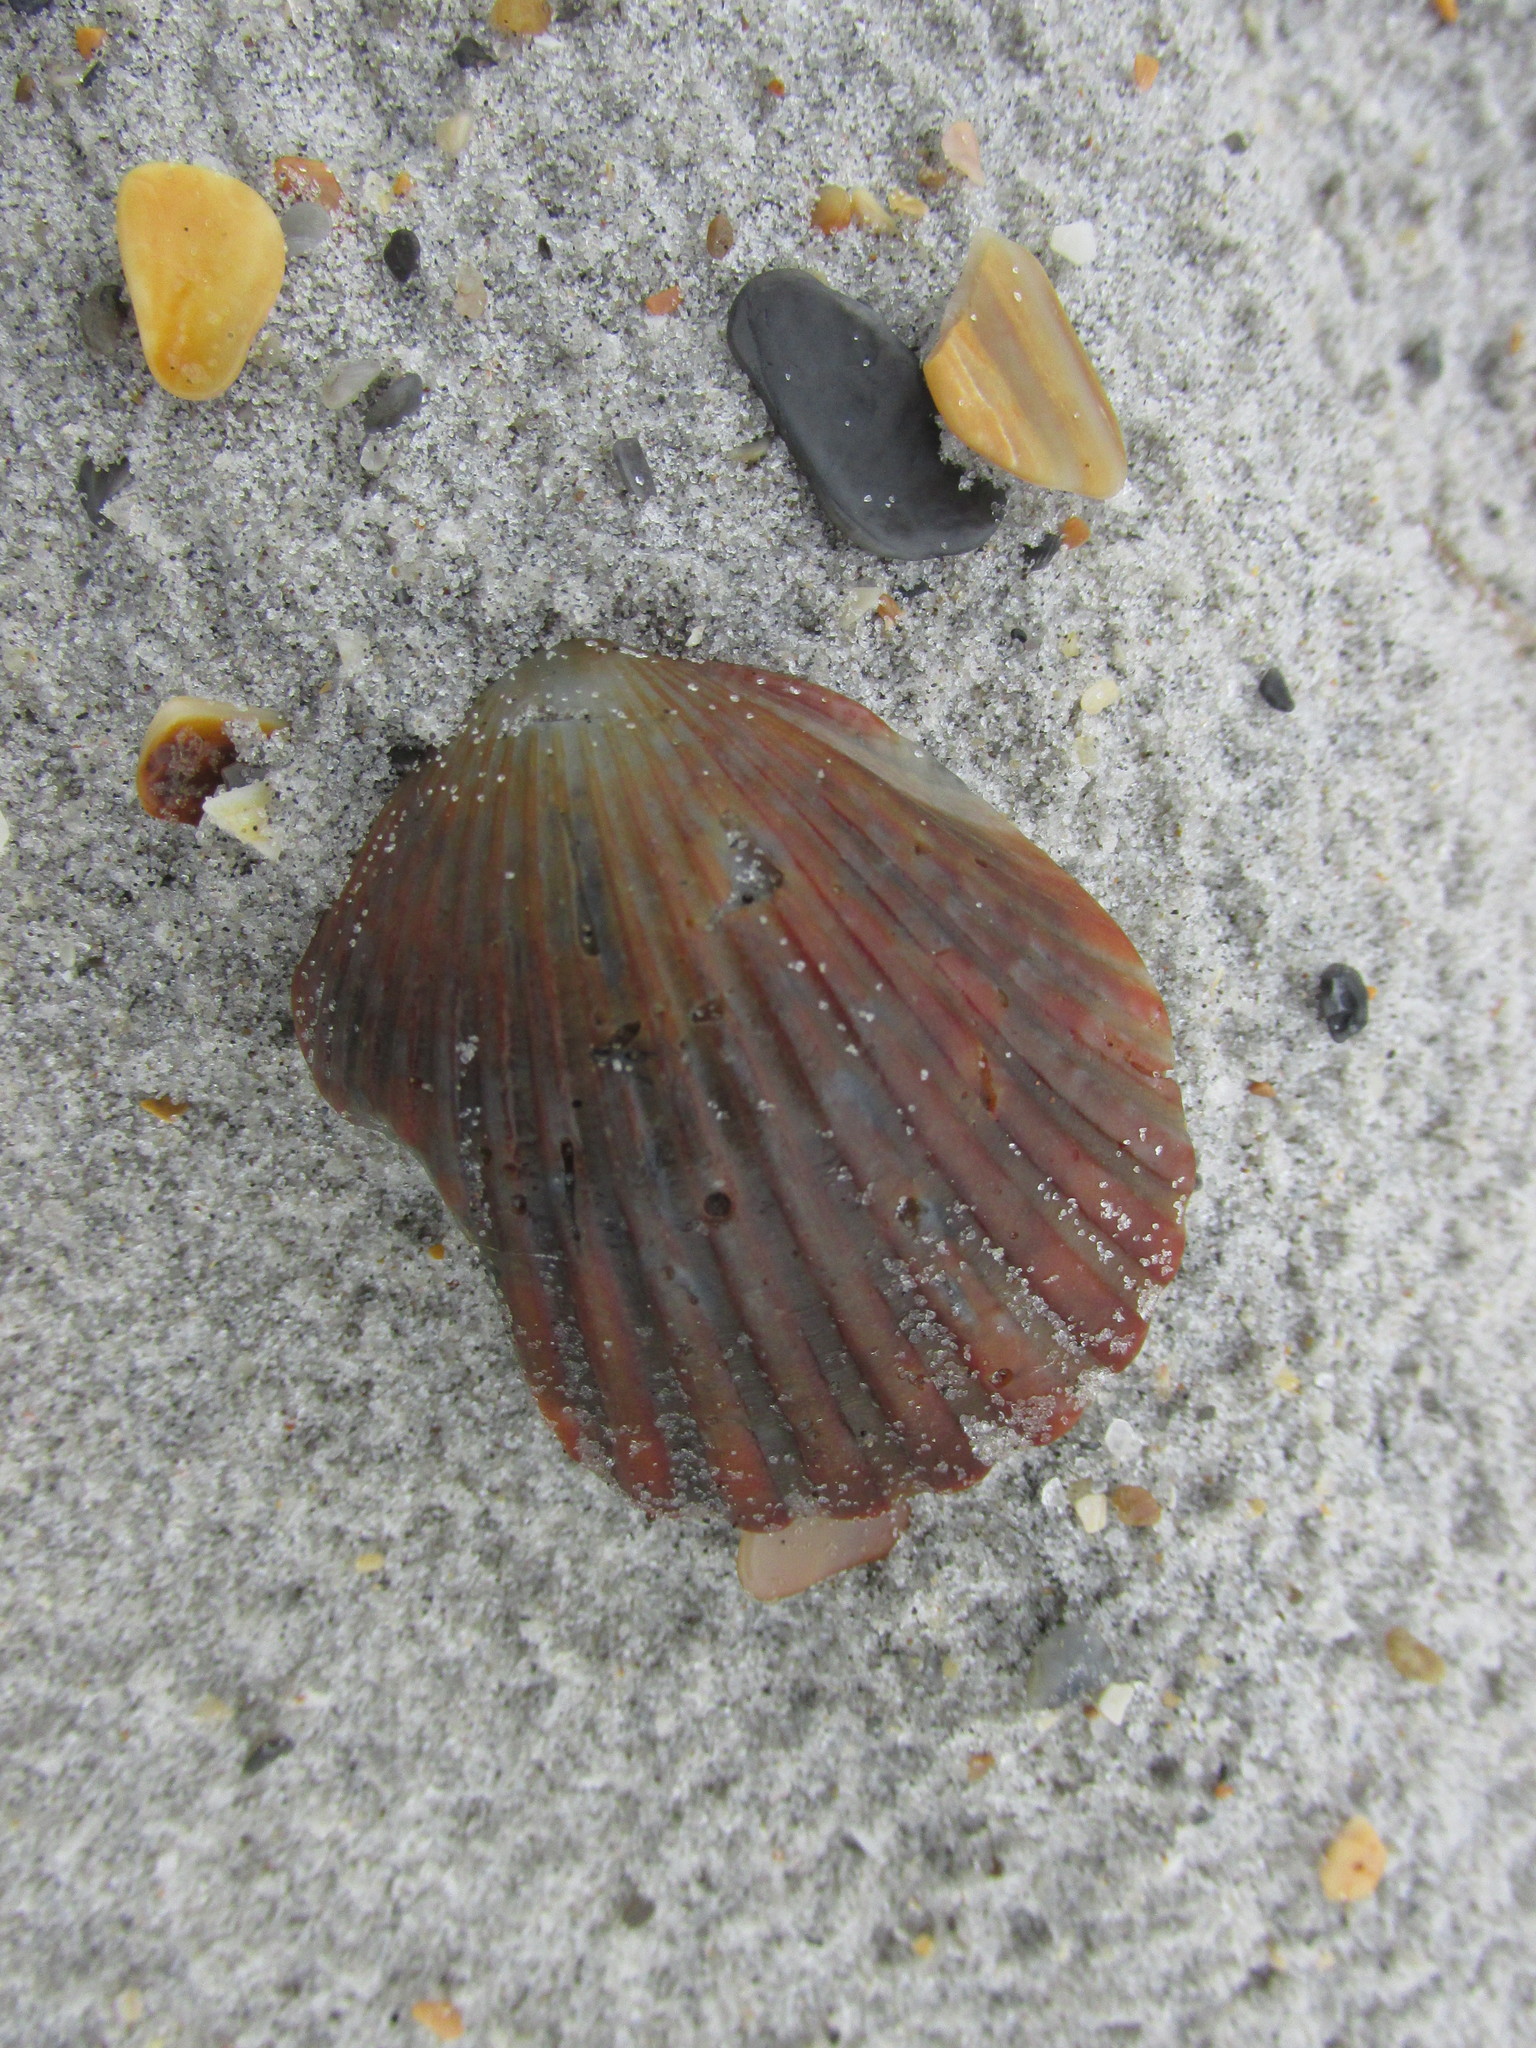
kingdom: Animalia
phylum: Mollusca
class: Bivalvia
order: Pectinida
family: Pectinidae
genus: Argopecten
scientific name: Argopecten irradians
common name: Atlantic bay scallop
